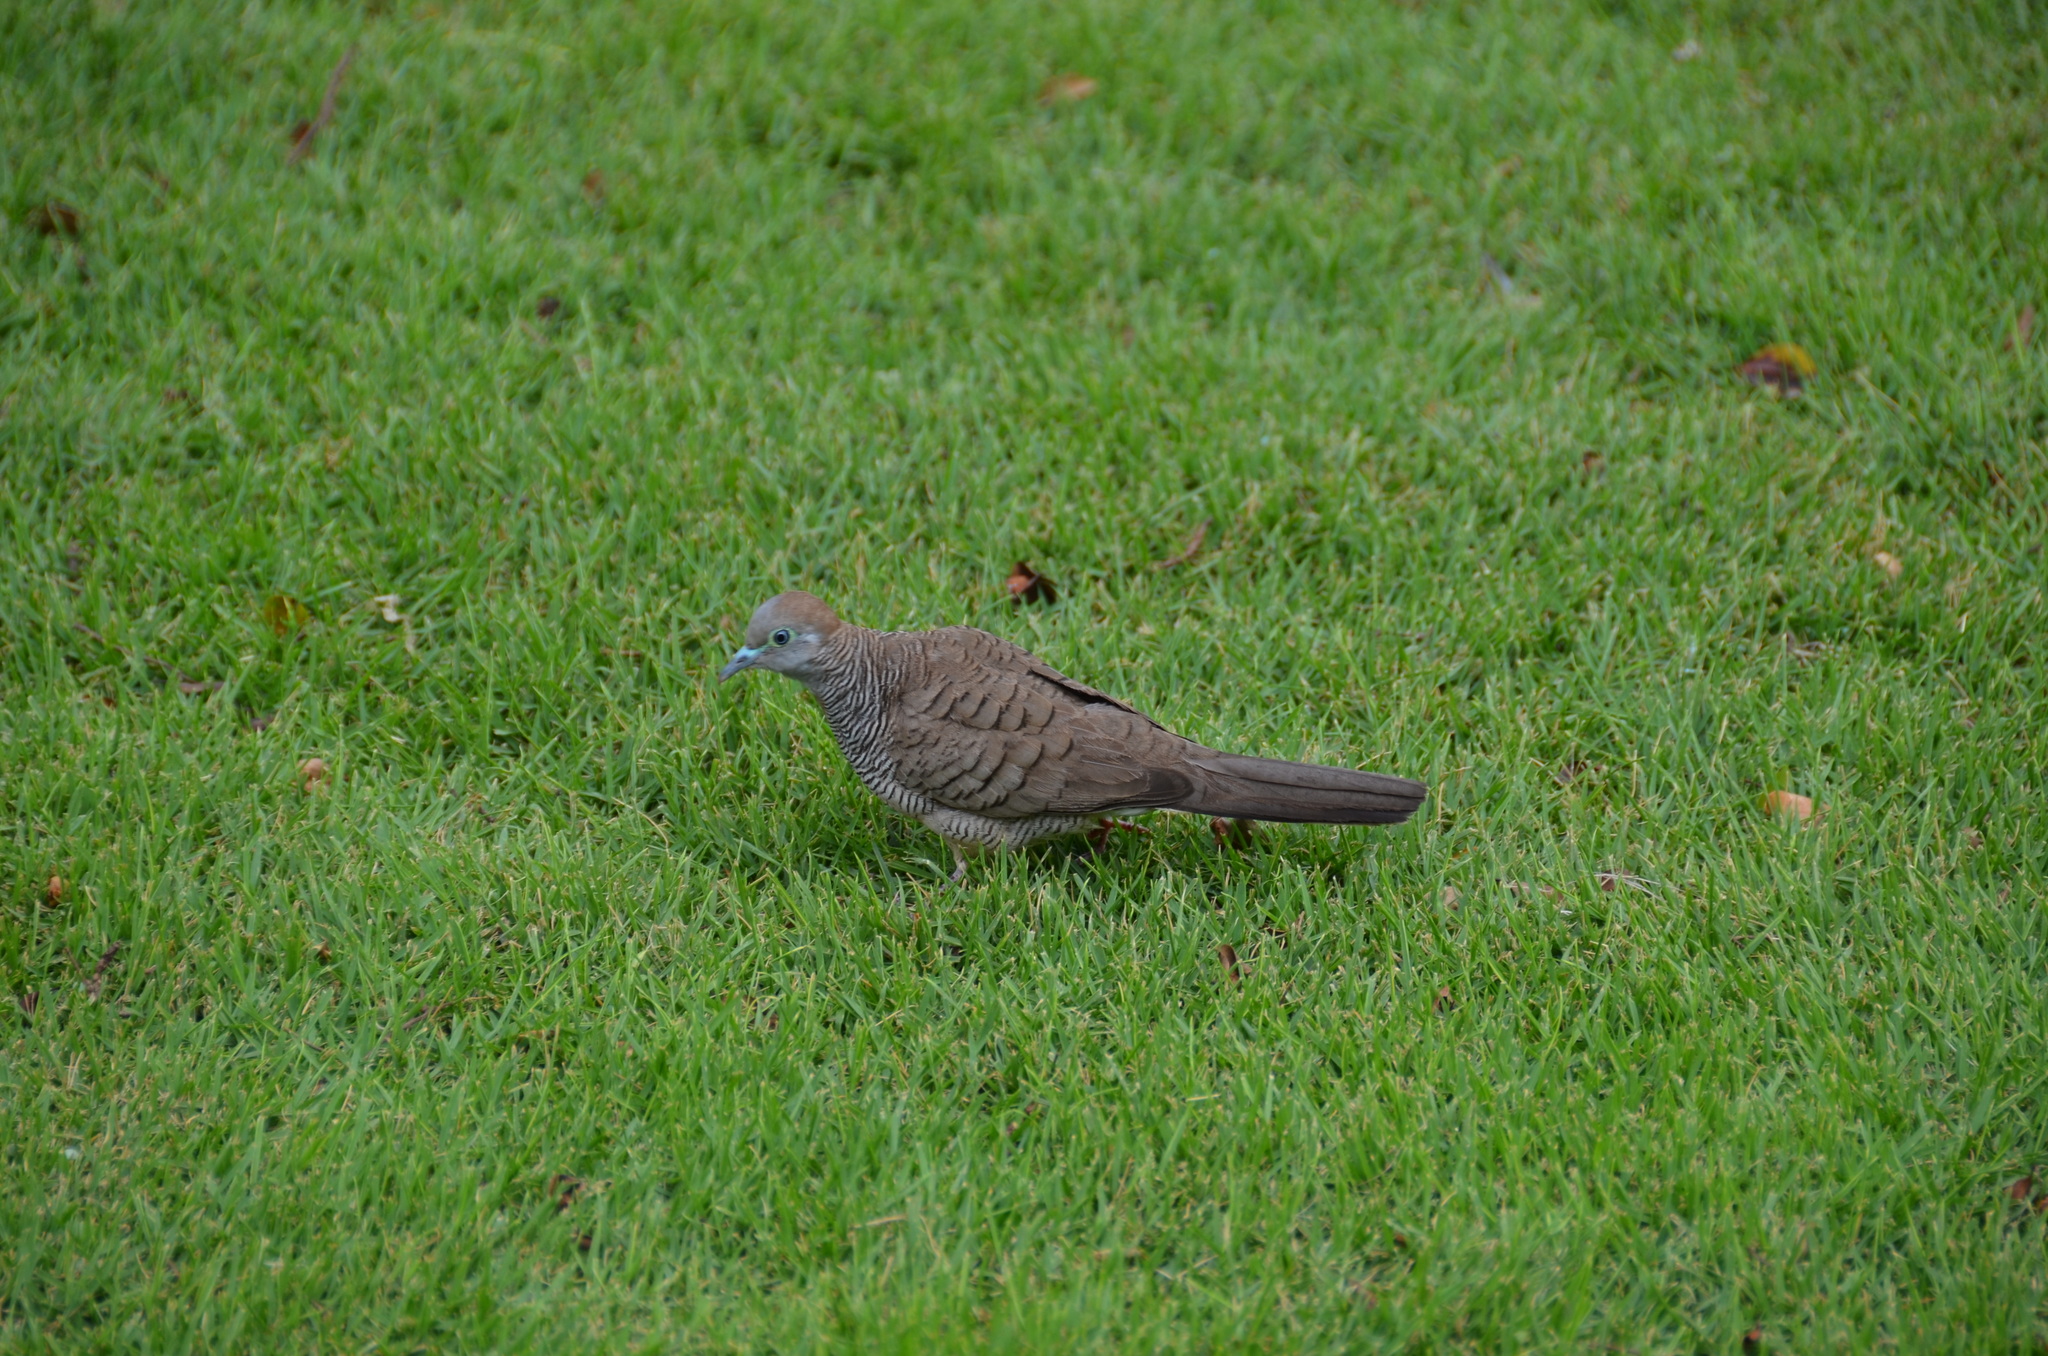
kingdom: Animalia
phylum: Chordata
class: Aves
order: Columbiformes
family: Columbidae
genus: Geopelia
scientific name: Geopelia striata
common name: Zebra dove
